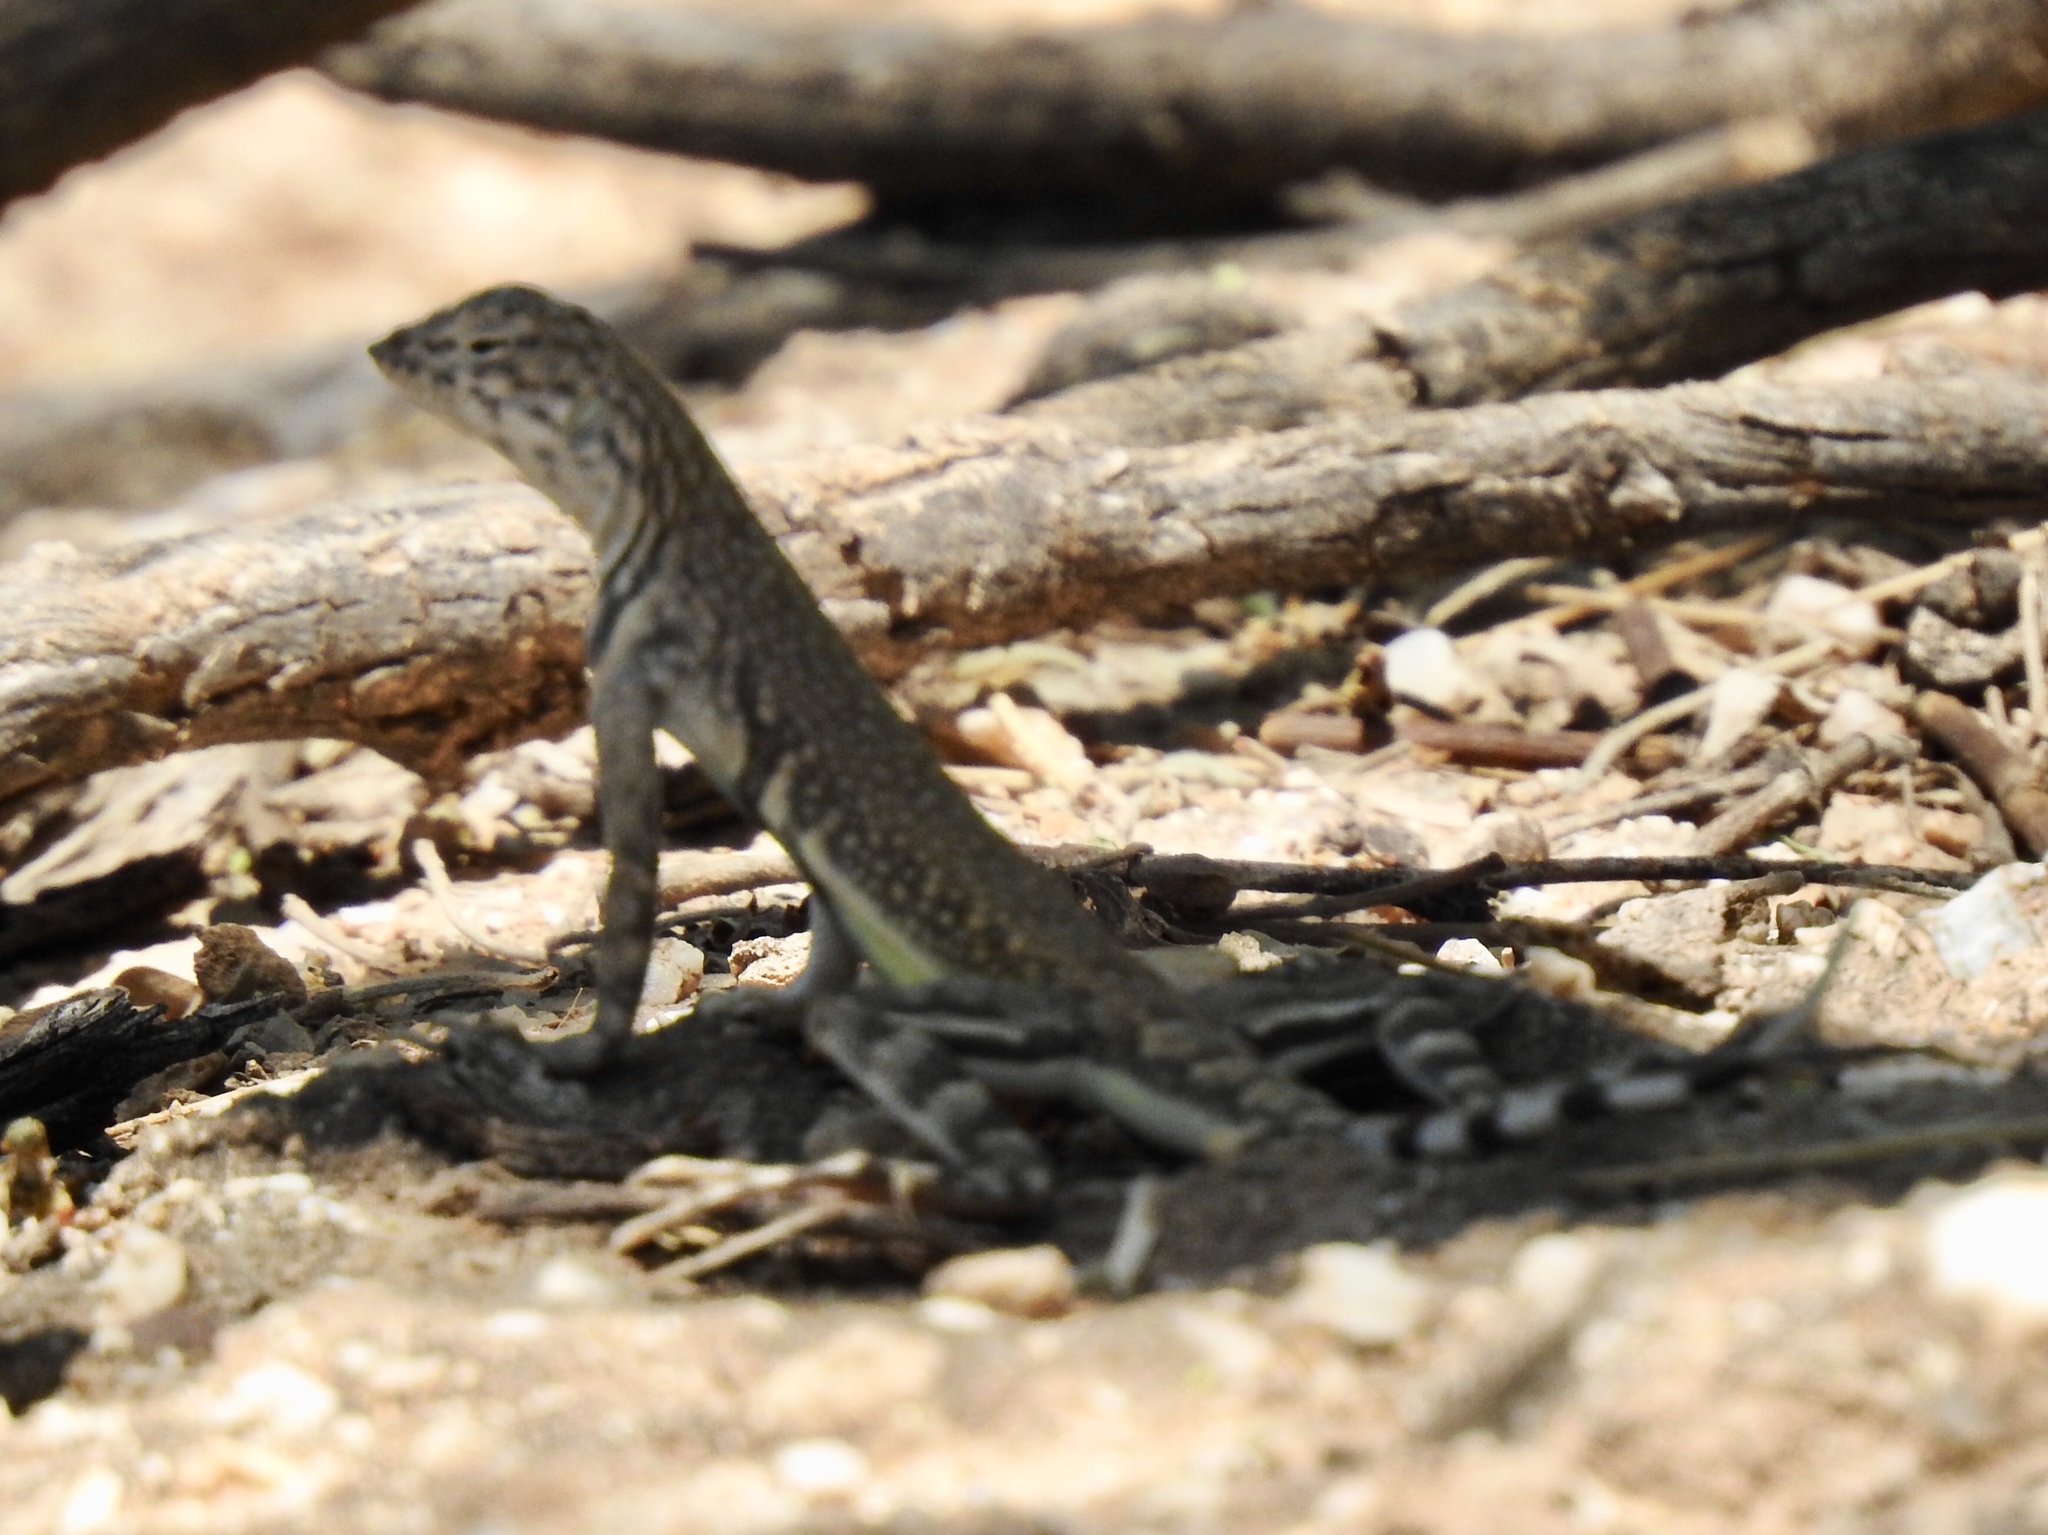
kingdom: Animalia
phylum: Chordata
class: Squamata
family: Phrynosomatidae
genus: Callisaurus
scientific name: Callisaurus draconoides
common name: Zebra-tailed lizard
